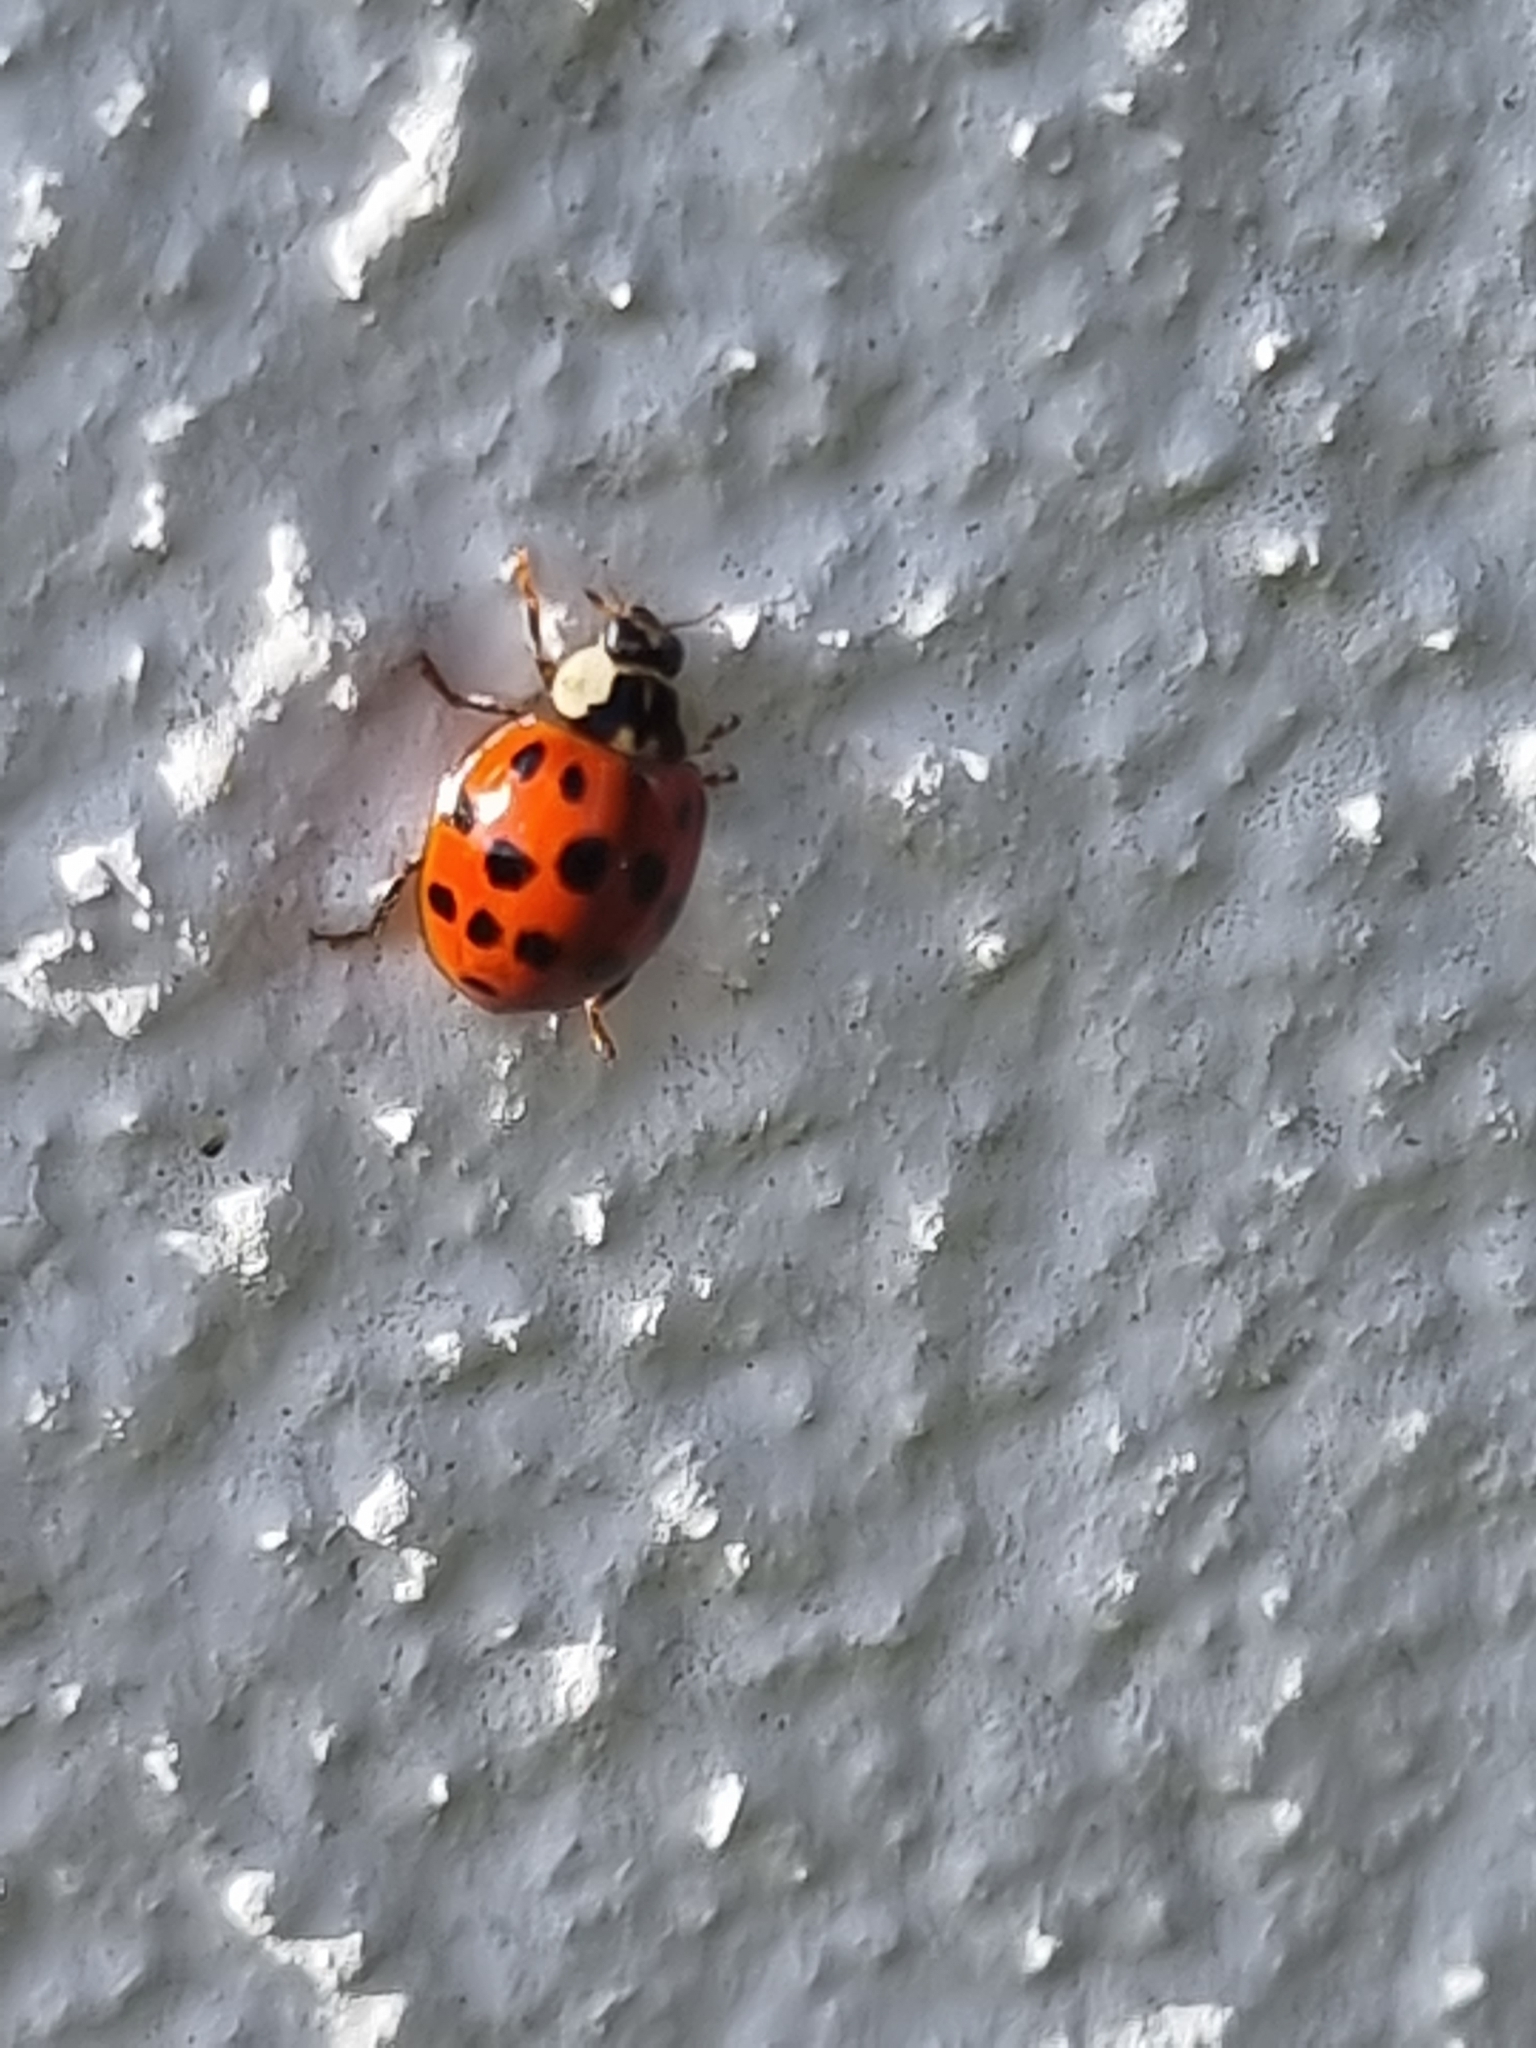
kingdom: Animalia
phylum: Arthropoda
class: Insecta
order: Coleoptera
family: Coccinellidae
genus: Harmonia
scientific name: Harmonia axyridis
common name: Harlequin ladybird
